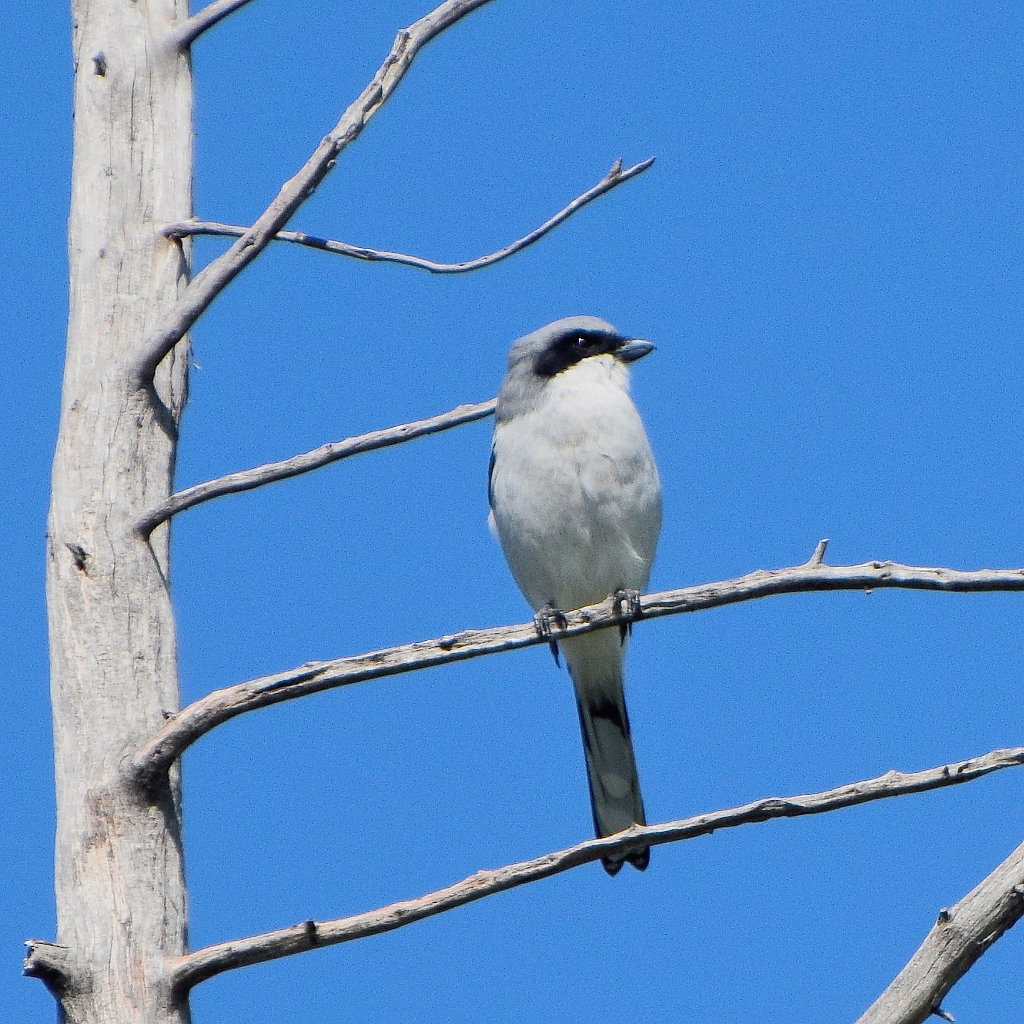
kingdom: Animalia
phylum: Chordata
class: Aves
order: Passeriformes
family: Laniidae
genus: Lanius
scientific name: Lanius ludovicianus
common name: Loggerhead shrike
